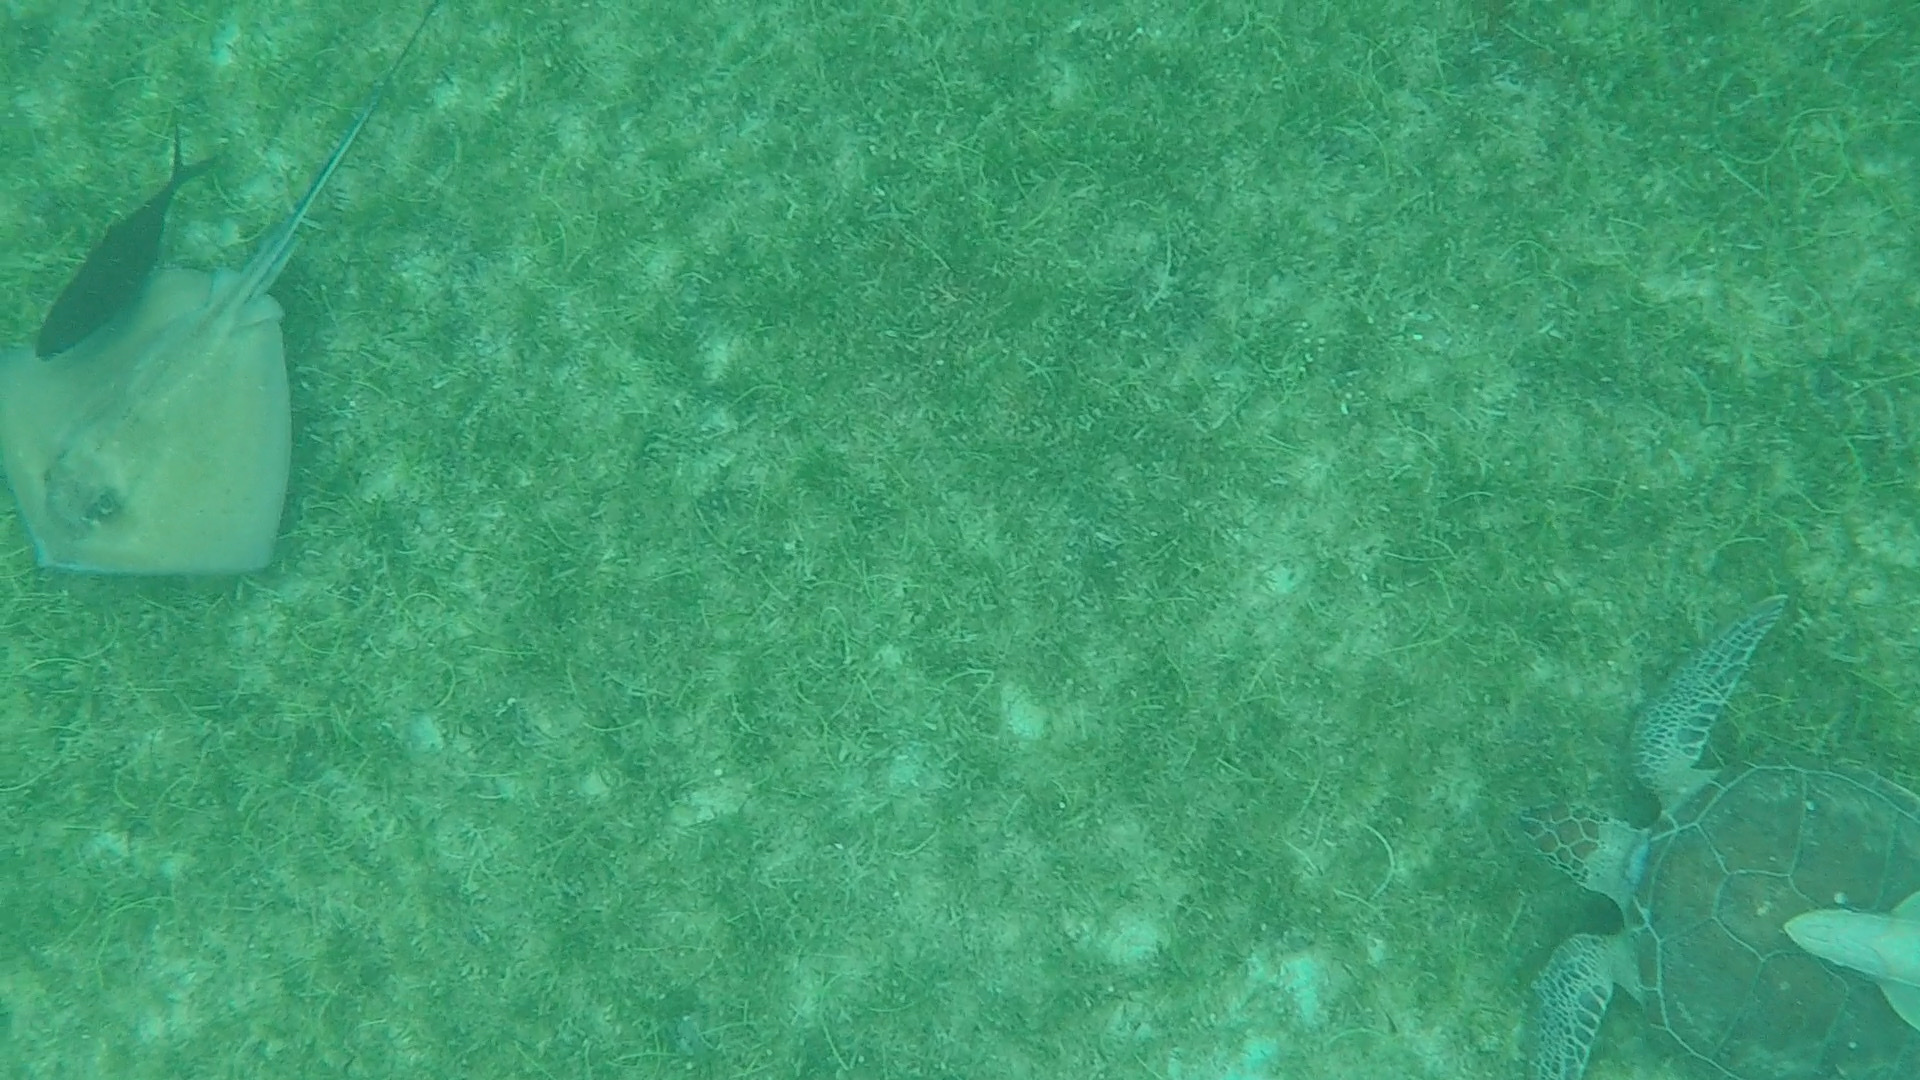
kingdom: Animalia
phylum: Chordata
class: Elasmobranchii
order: Myliobatiformes
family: Dasyatidae
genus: Hypanus
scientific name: Hypanus americanus
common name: Southern stingray
